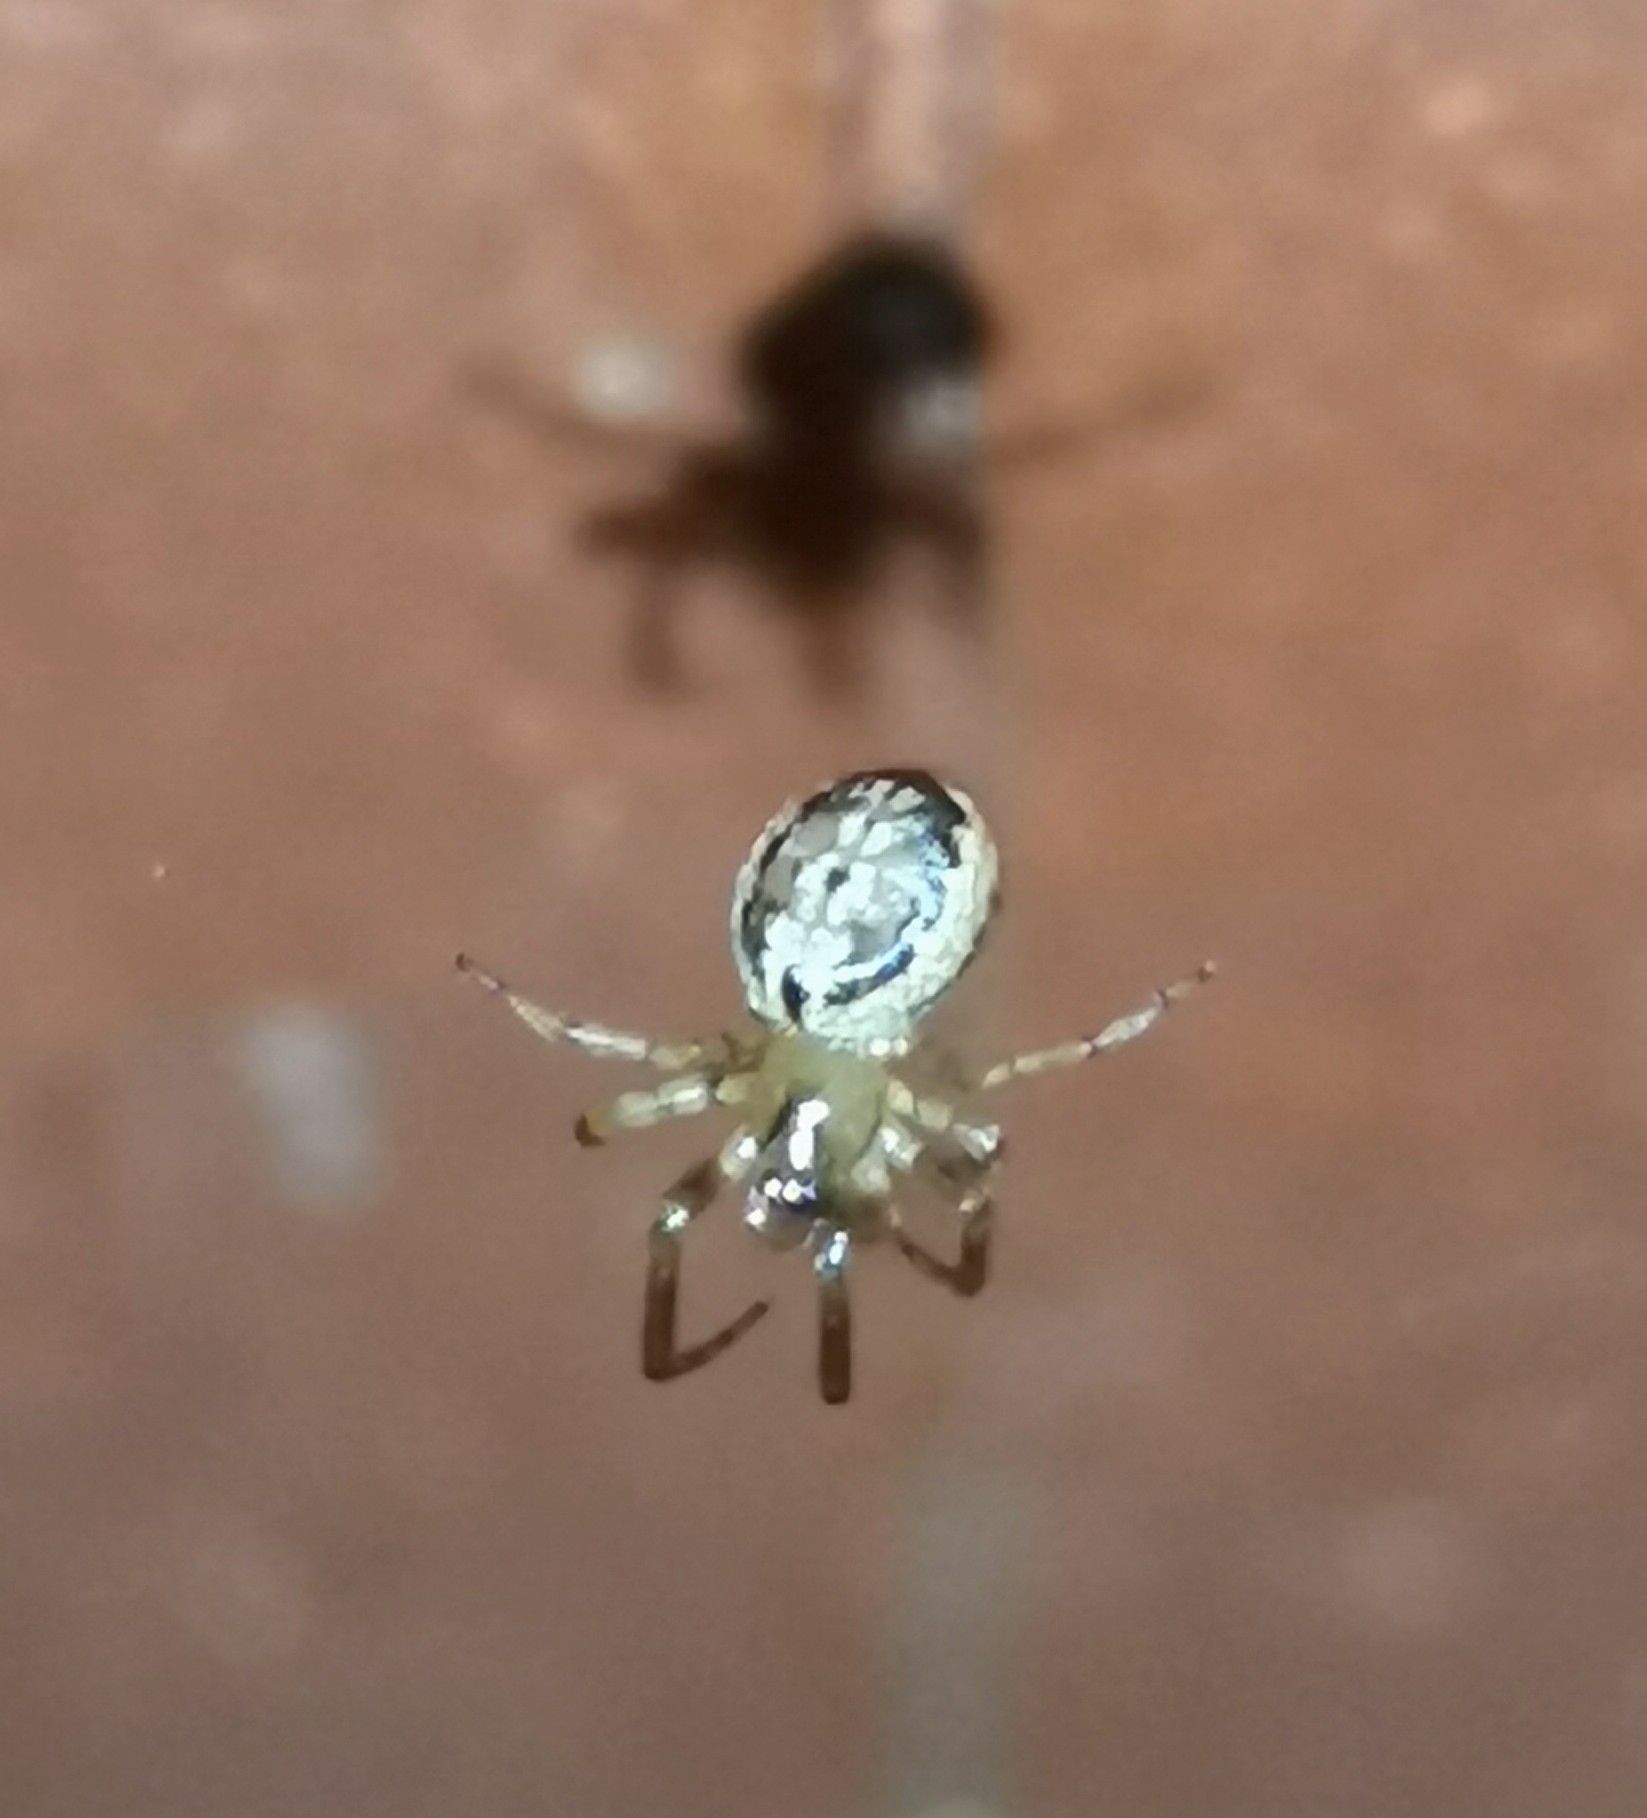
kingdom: Animalia
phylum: Arthropoda
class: Arachnida
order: Araneae
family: Araneidae
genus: Leviellus
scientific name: Leviellus stroemi
